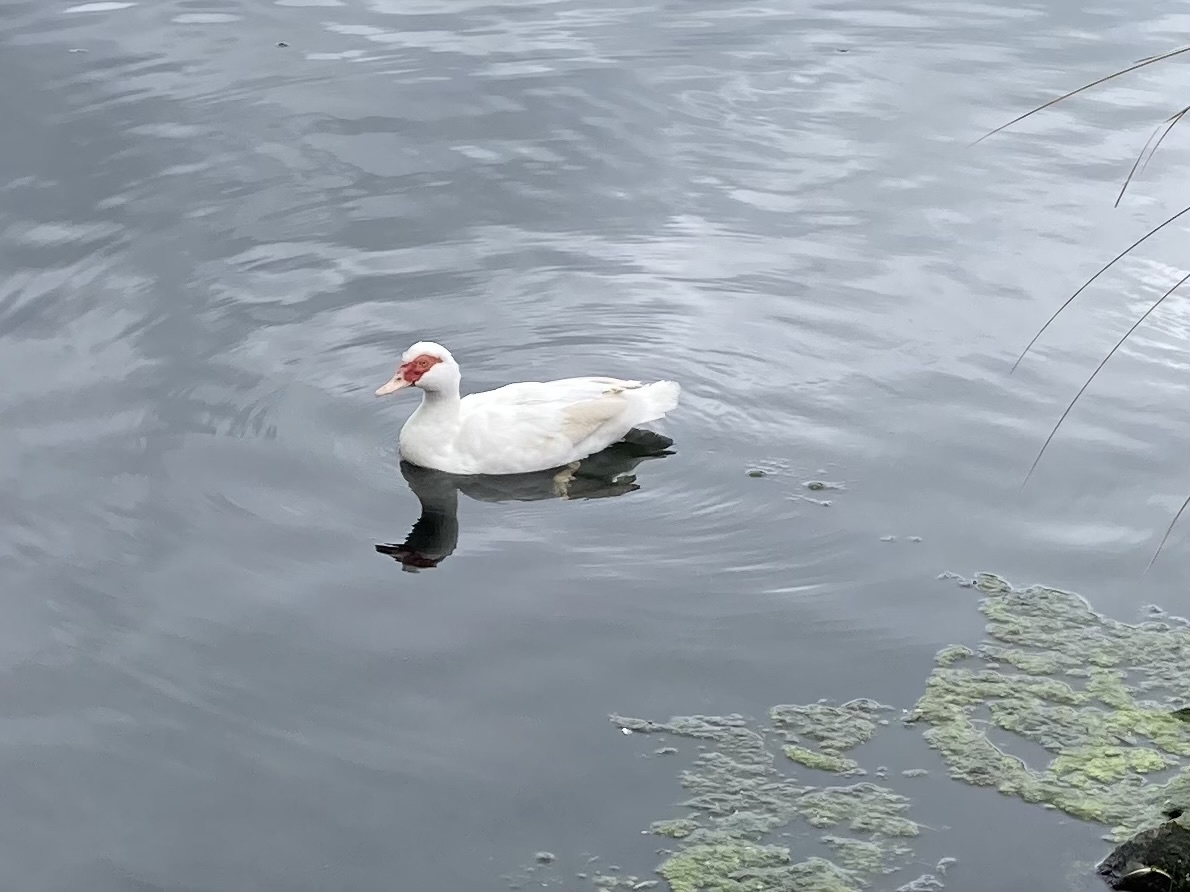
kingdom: Animalia
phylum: Chordata
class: Aves
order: Anseriformes
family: Anatidae
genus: Cairina
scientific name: Cairina moschata
